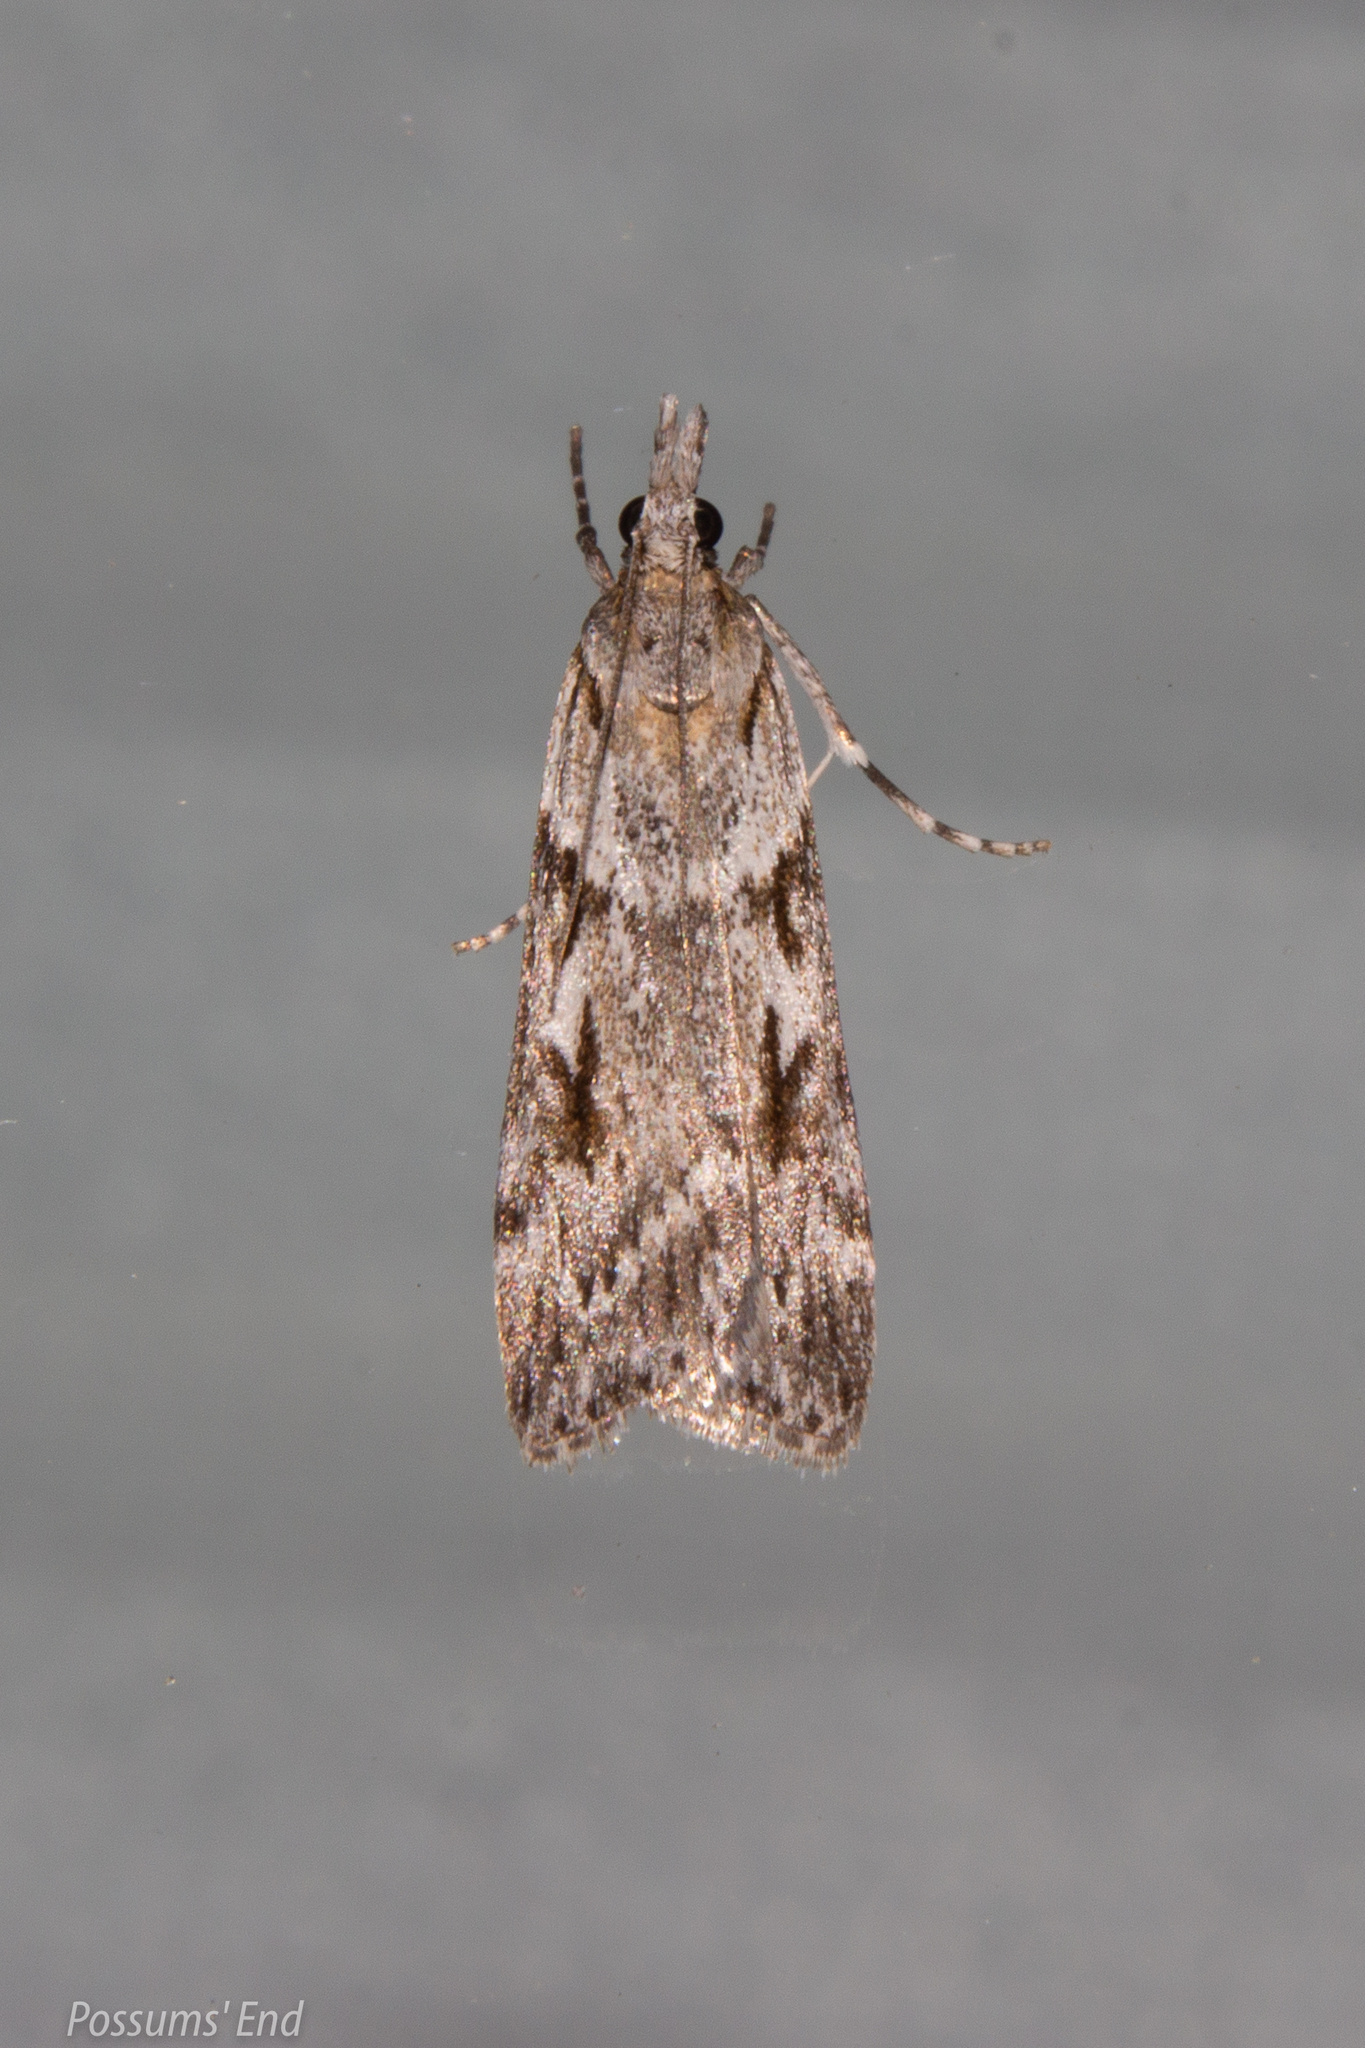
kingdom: Animalia
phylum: Arthropoda
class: Insecta
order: Lepidoptera
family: Crambidae
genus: Scoparia
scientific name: Scoparia halopis
